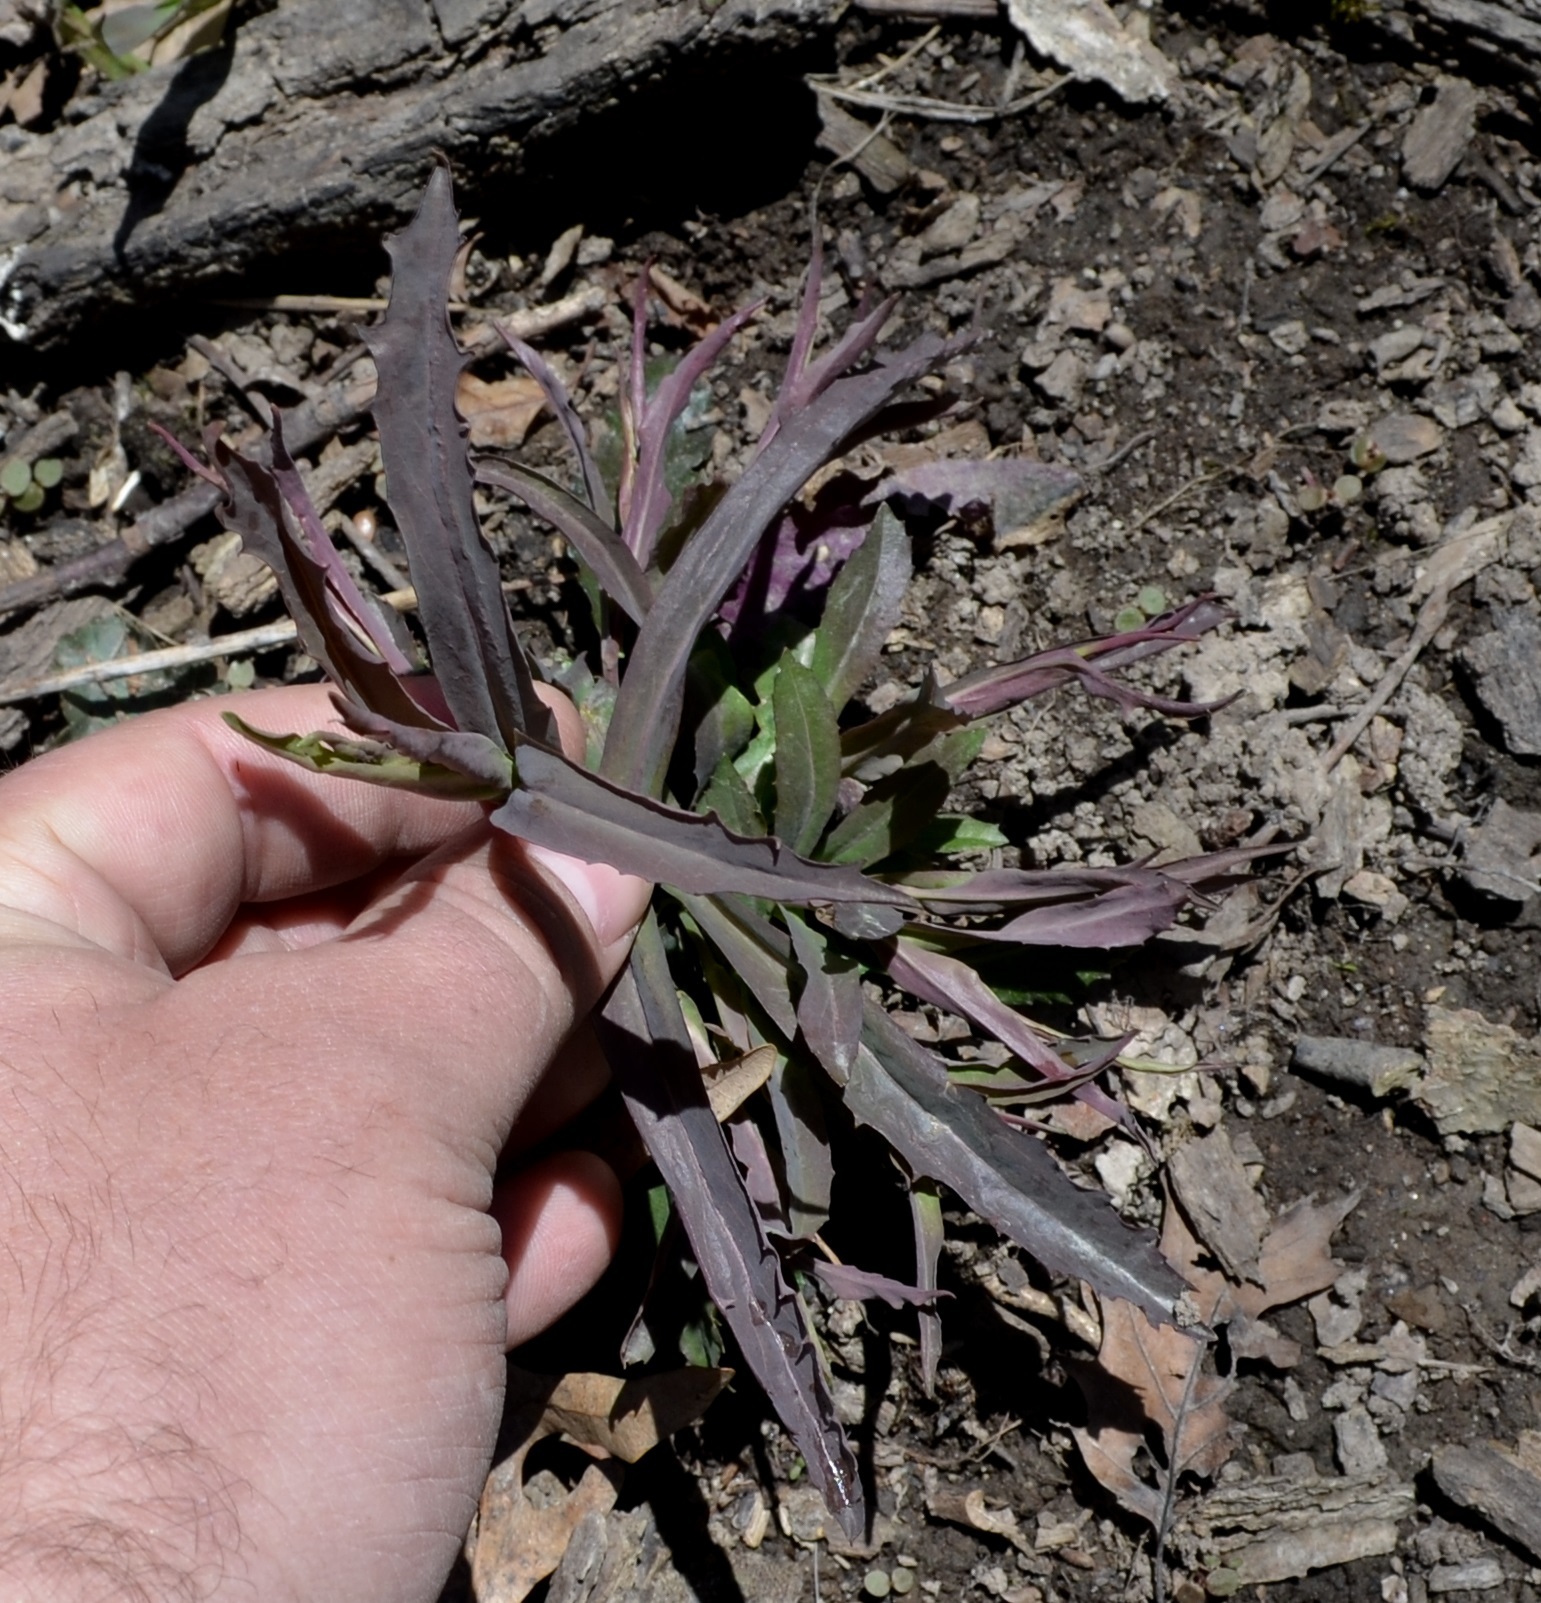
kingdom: Plantae
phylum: Tracheophyta
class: Magnoliopsida
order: Brassicales
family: Brassicaceae
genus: Borodinia
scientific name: Borodinia laevigata
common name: Smooth rockcress
